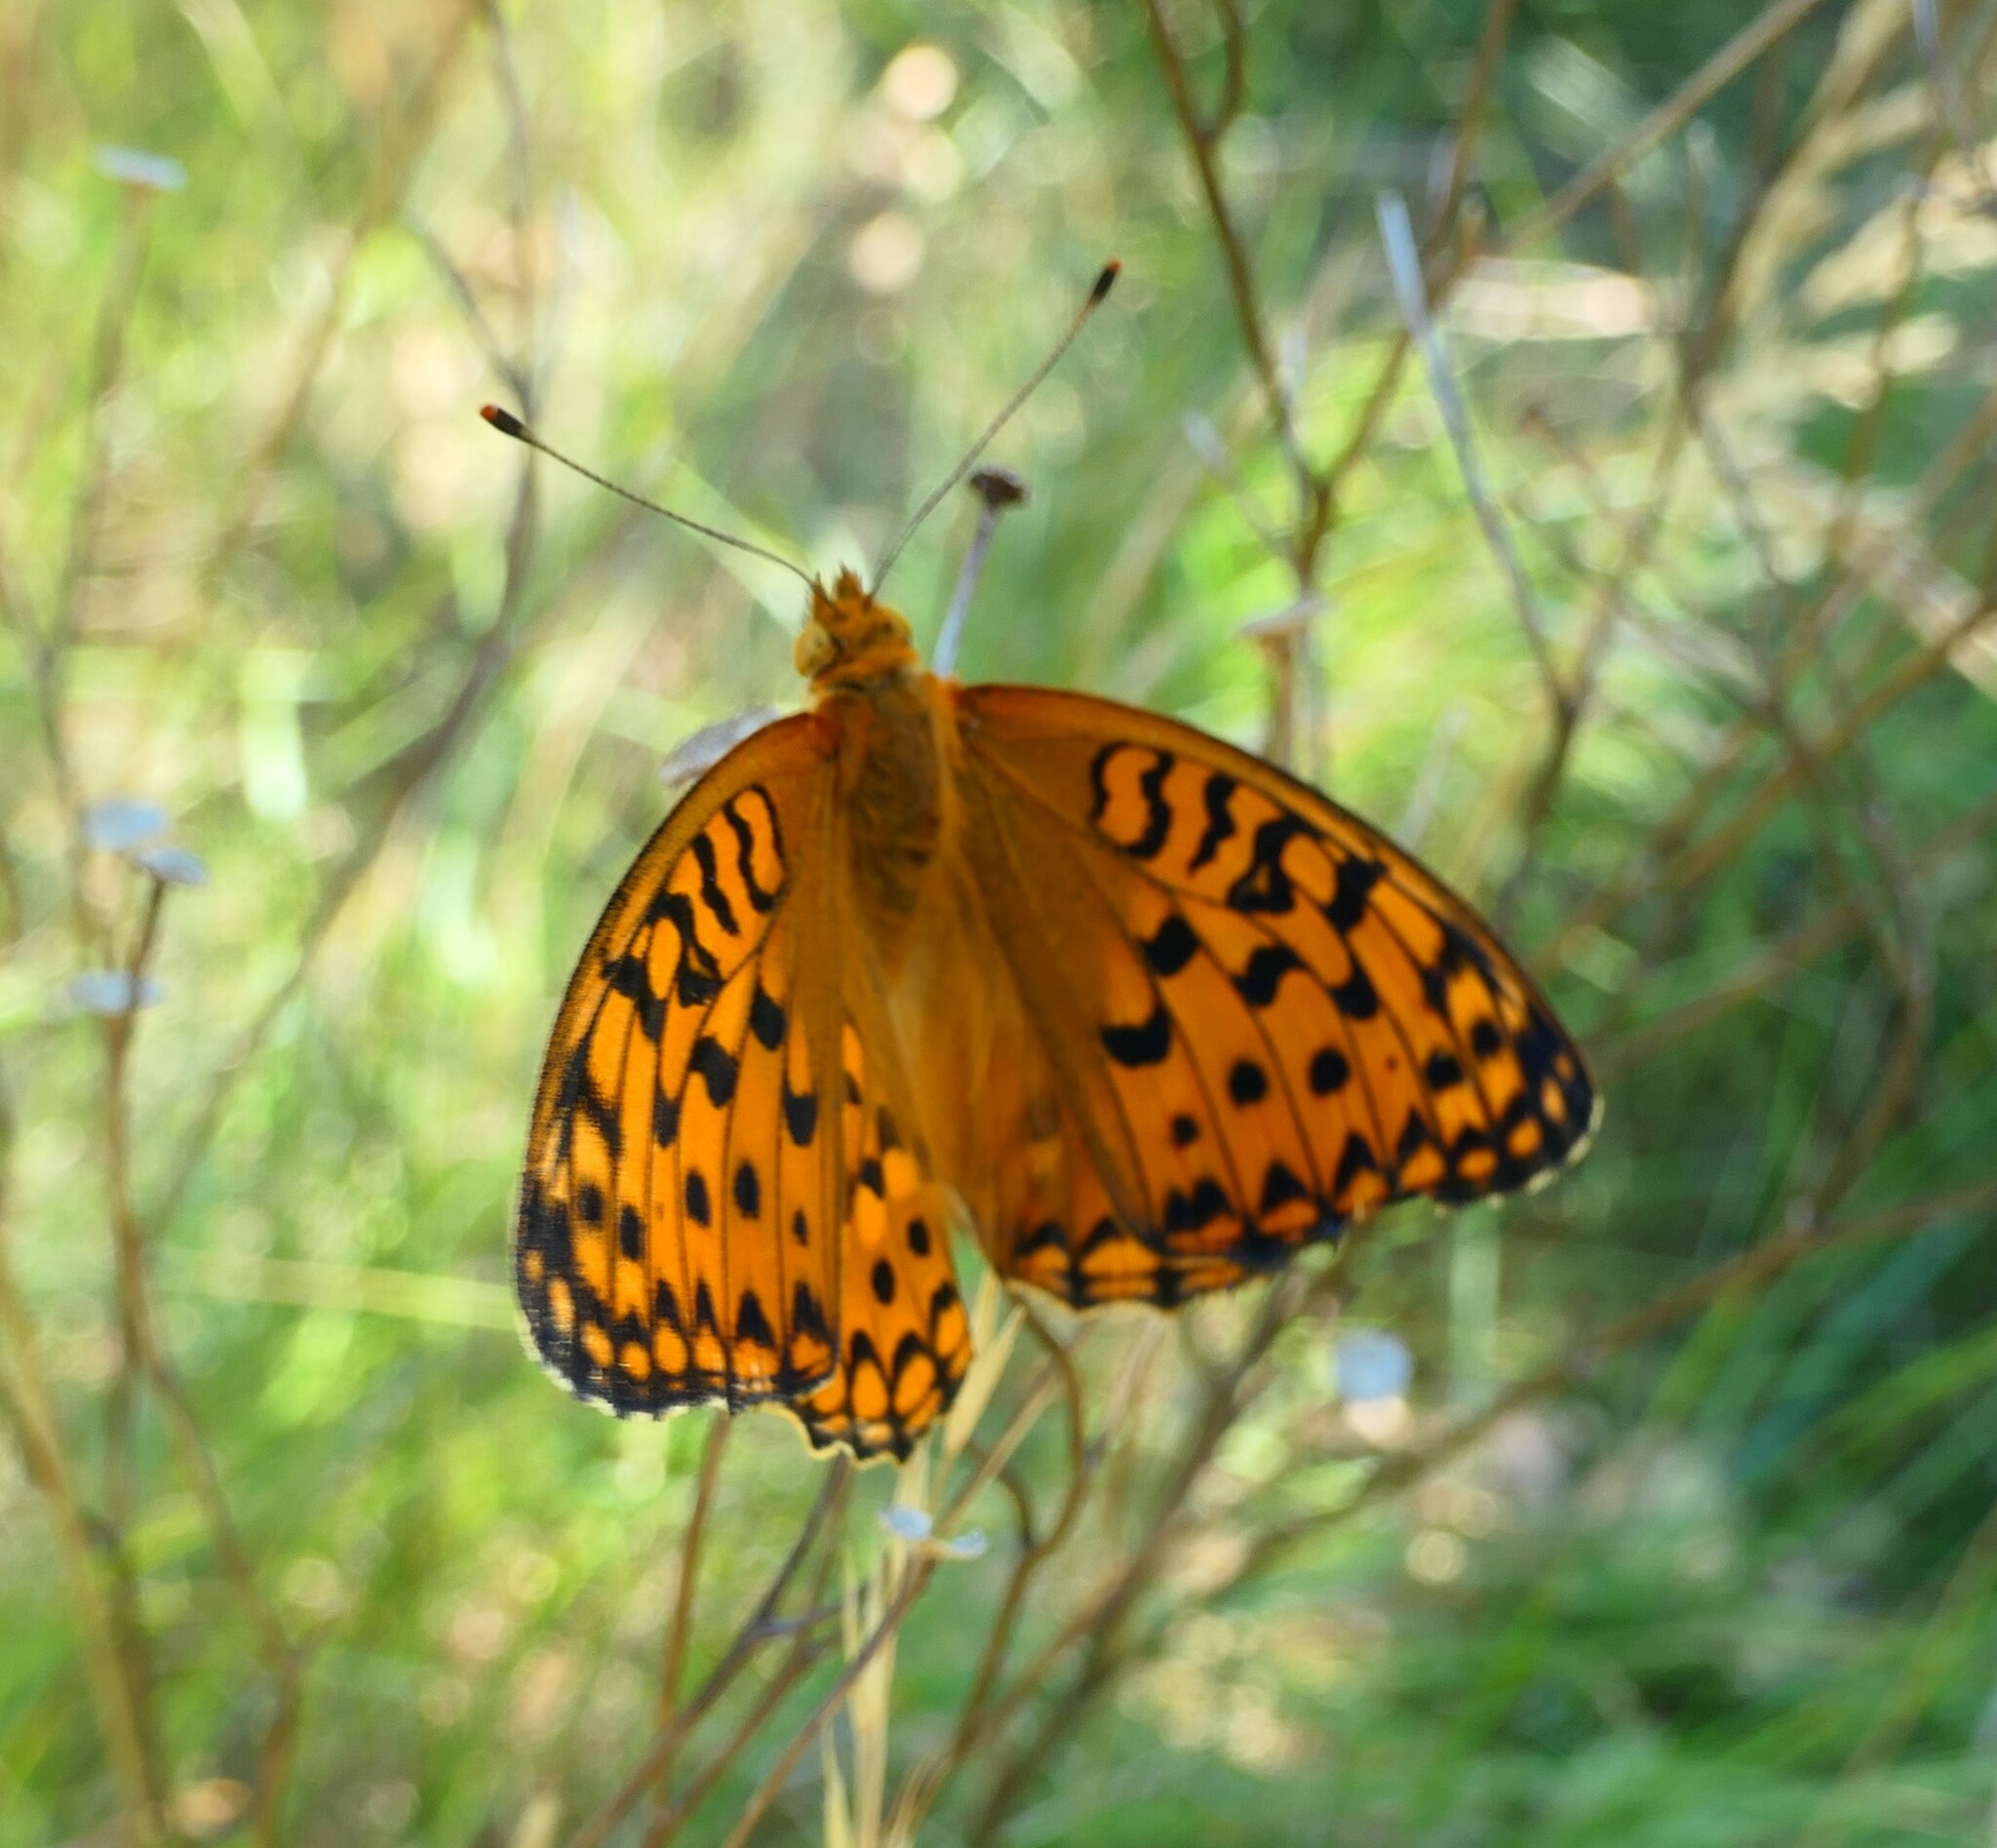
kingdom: Animalia
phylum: Arthropoda
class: Insecta
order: Lepidoptera
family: Nymphalidae
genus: Fabriciana
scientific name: Fabriciana adippe
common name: High brown fritillary
